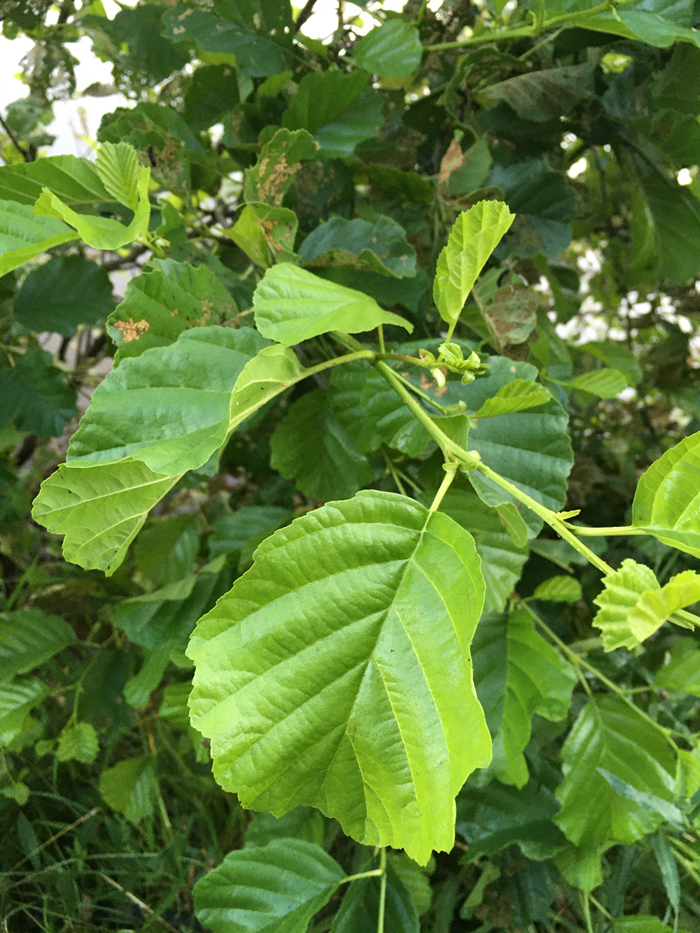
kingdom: Plantae
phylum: Tracheophyta
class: Magnoliopsida
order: Fagales
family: Betulaceae
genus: Alnus
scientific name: Alnus glutinosa
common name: Black alder
